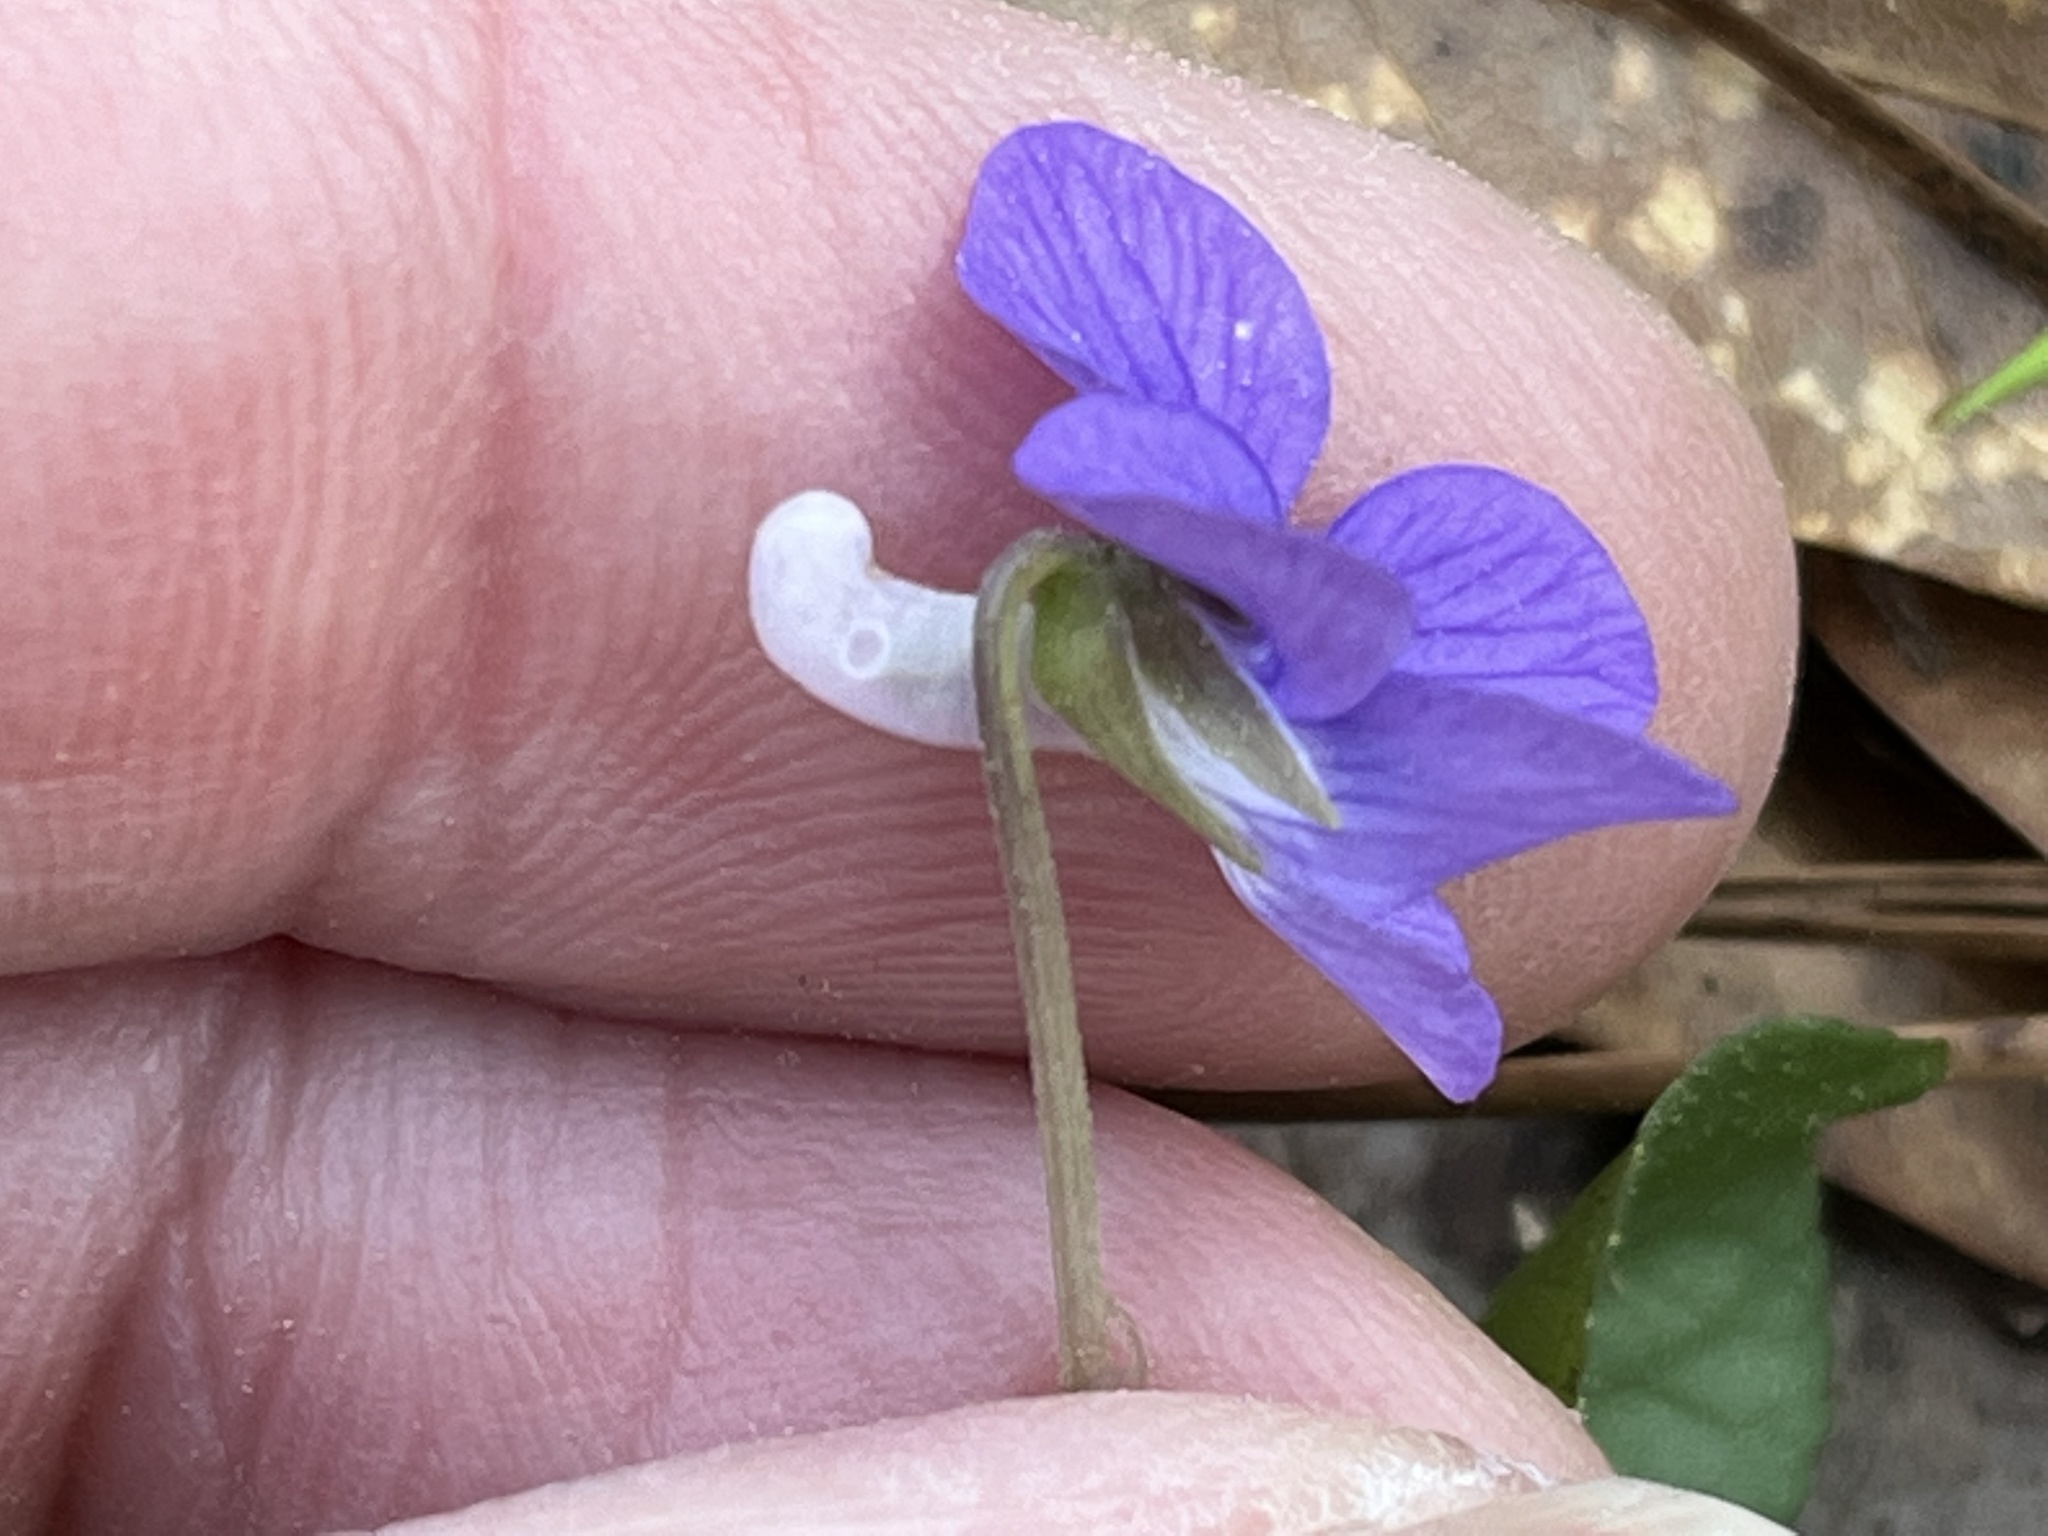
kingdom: Plantae
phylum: Tracheophyta
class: Magnoliopsida
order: Malpighiales
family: Violaceae
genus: Viola
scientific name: Viola walteri
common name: Prostrate southern violet
